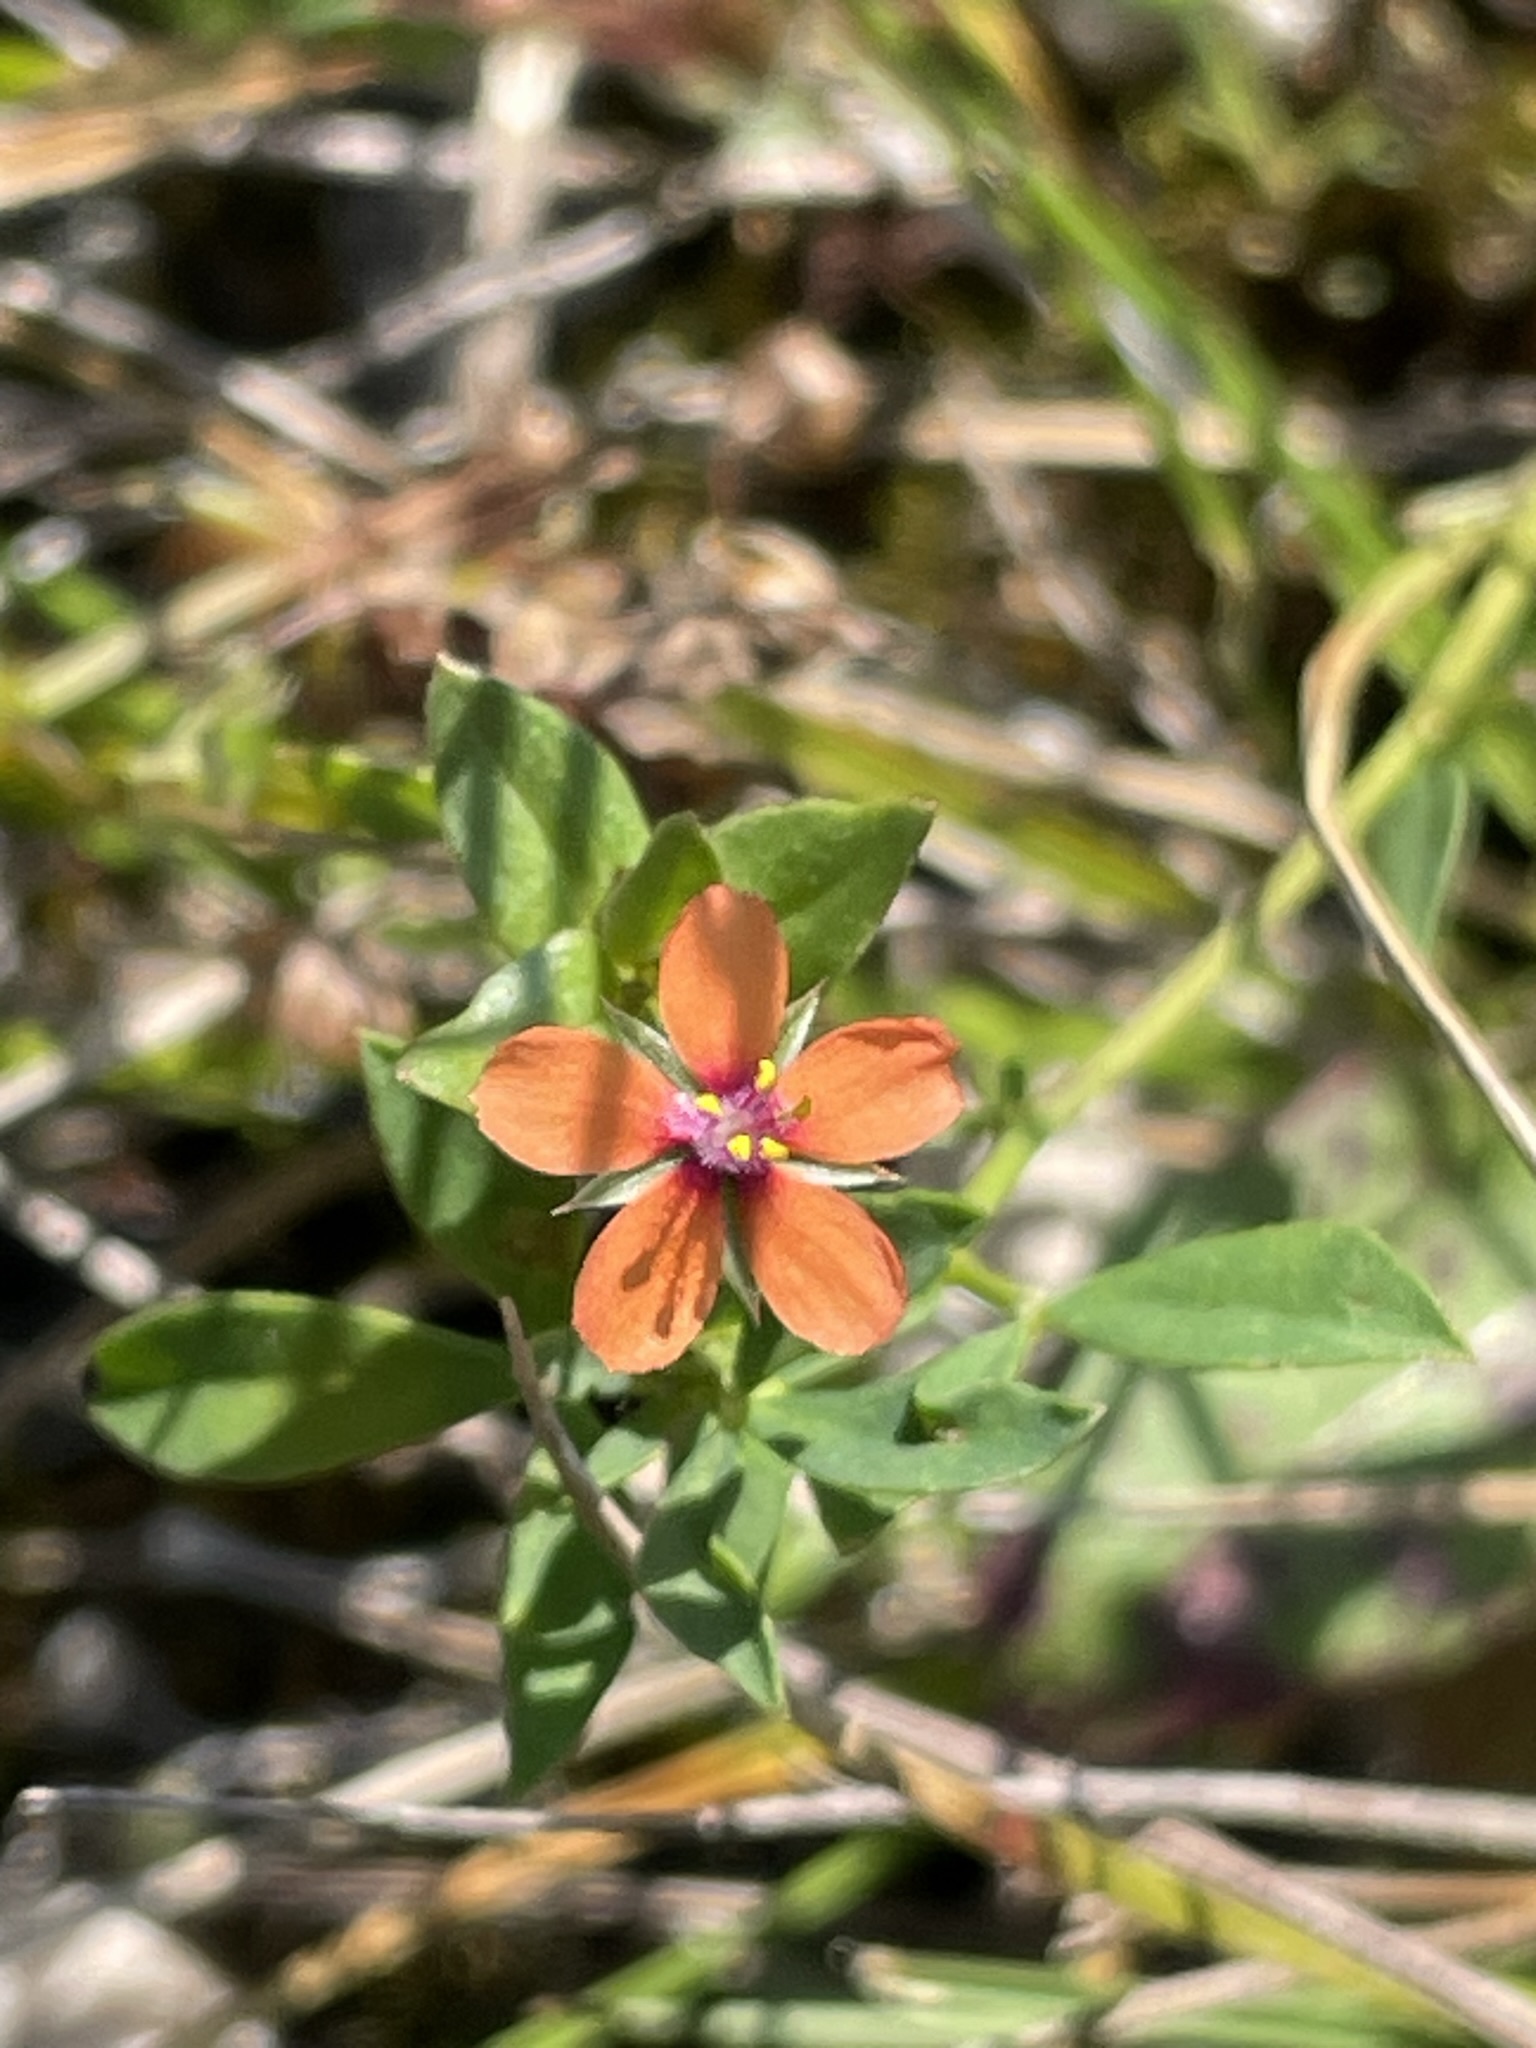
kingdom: Plantae
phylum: Tracheophyta
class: Magnoliopsida
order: Ericales
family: Primulaceae
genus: Lysimachia
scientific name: Lysimachia arvensis
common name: Scarlet pimpernel
